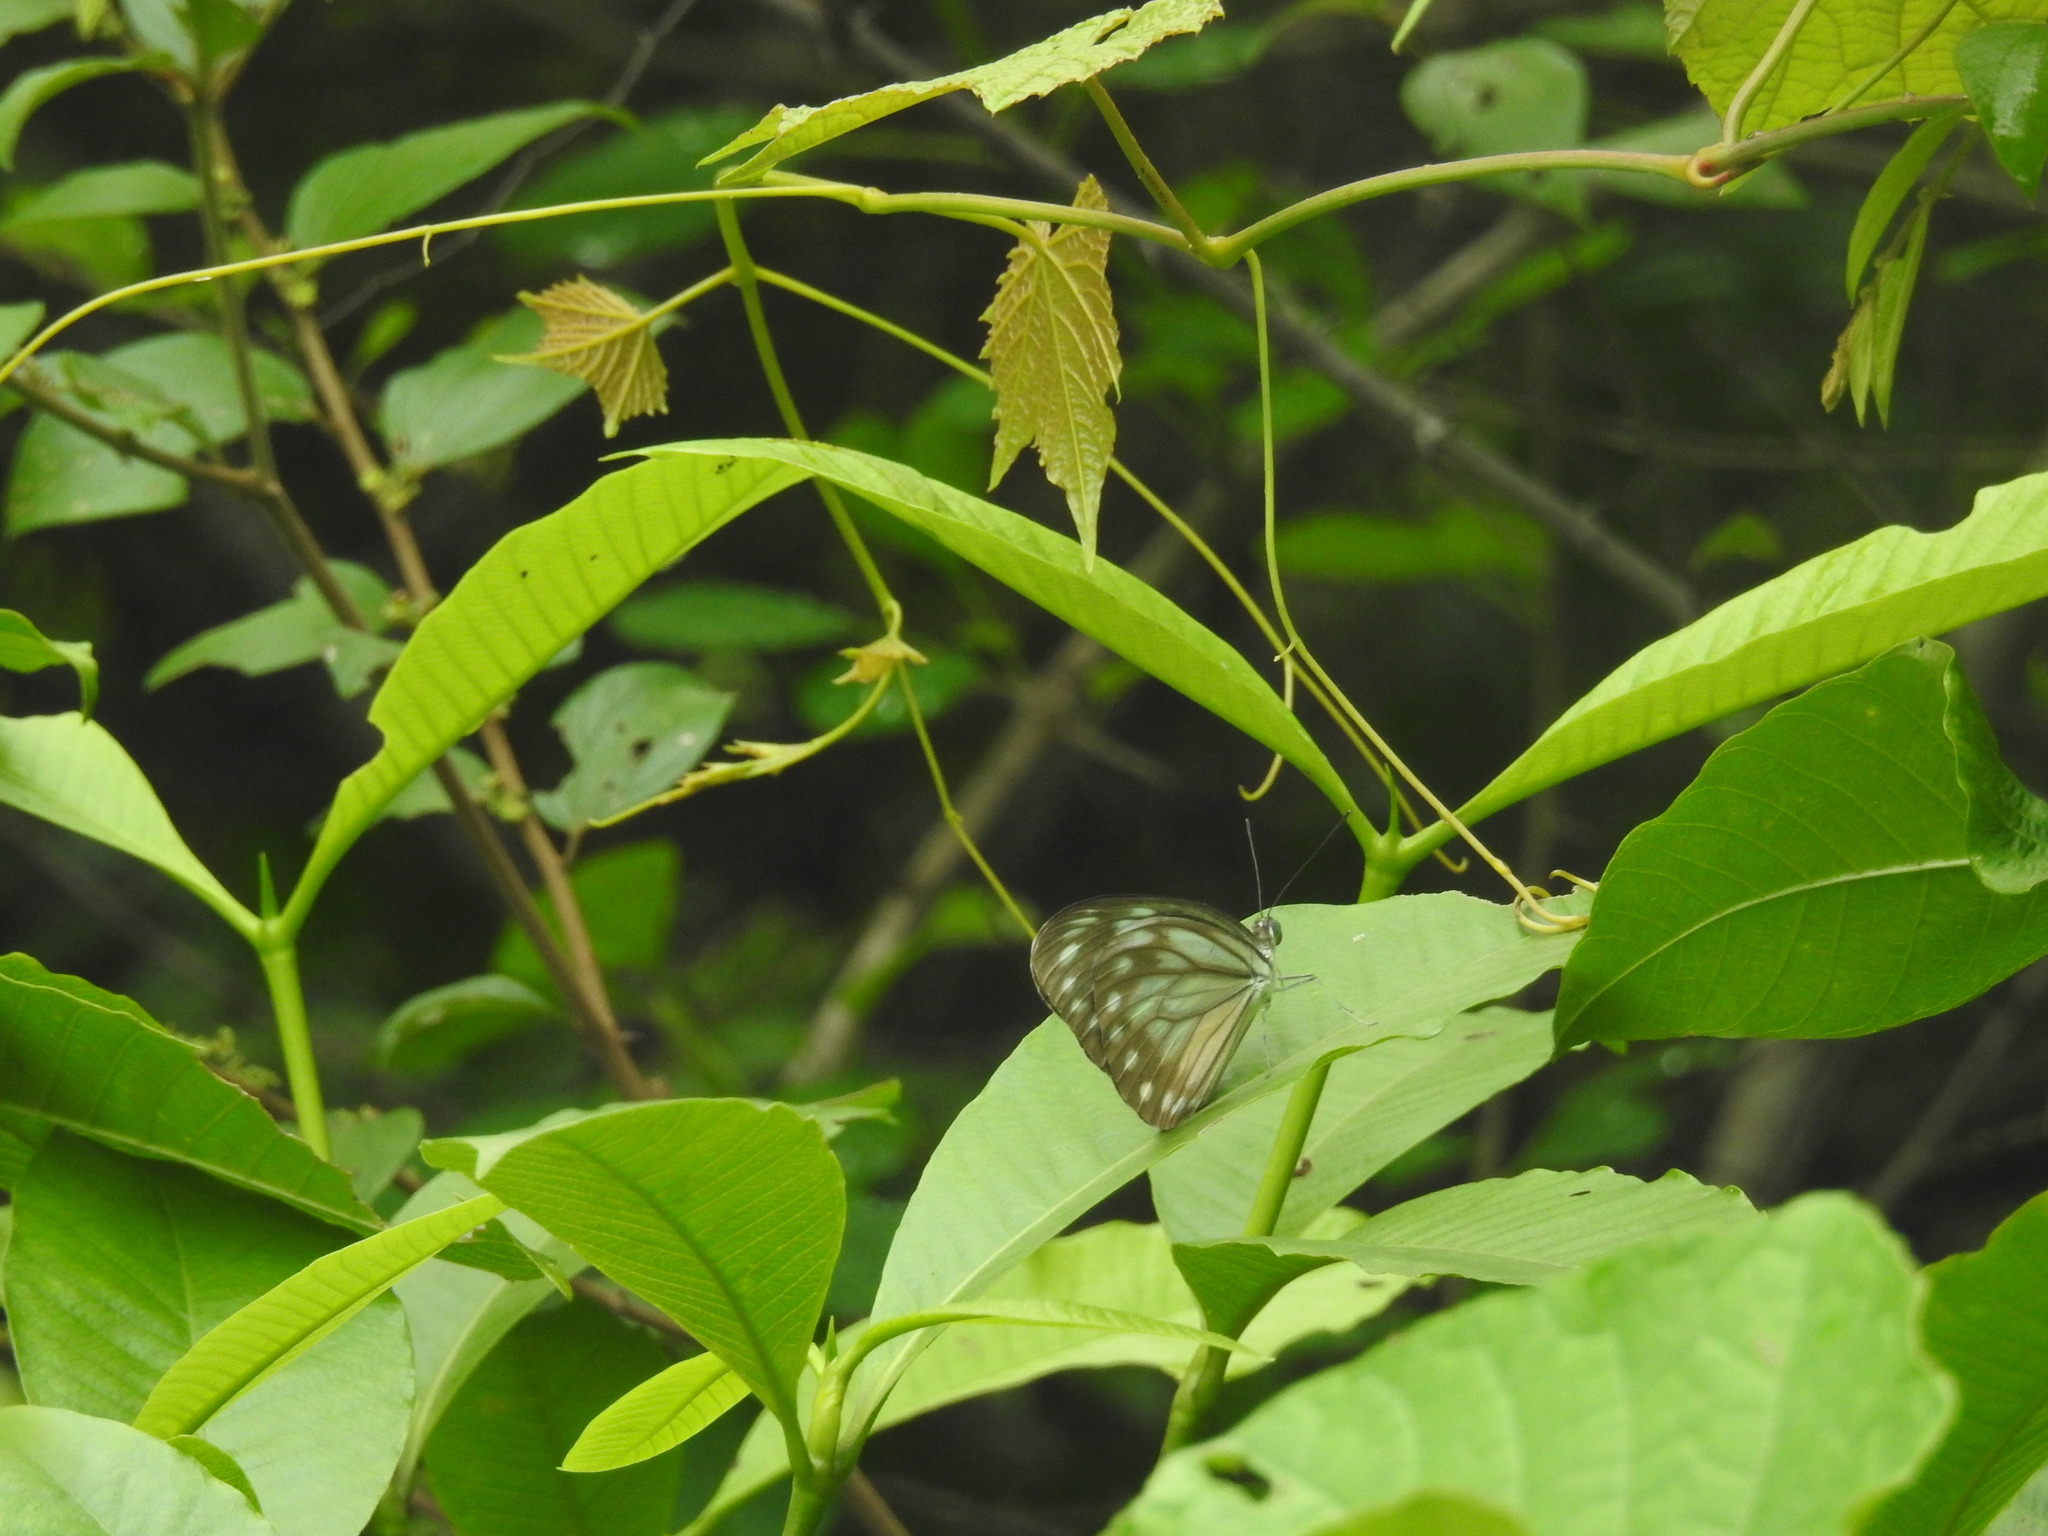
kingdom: Animalia
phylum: Arthropoda
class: Insecta
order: Lepidoptera
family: Pieridae
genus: Pareronia
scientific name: Pareronia hippia
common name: Indian wanderer
